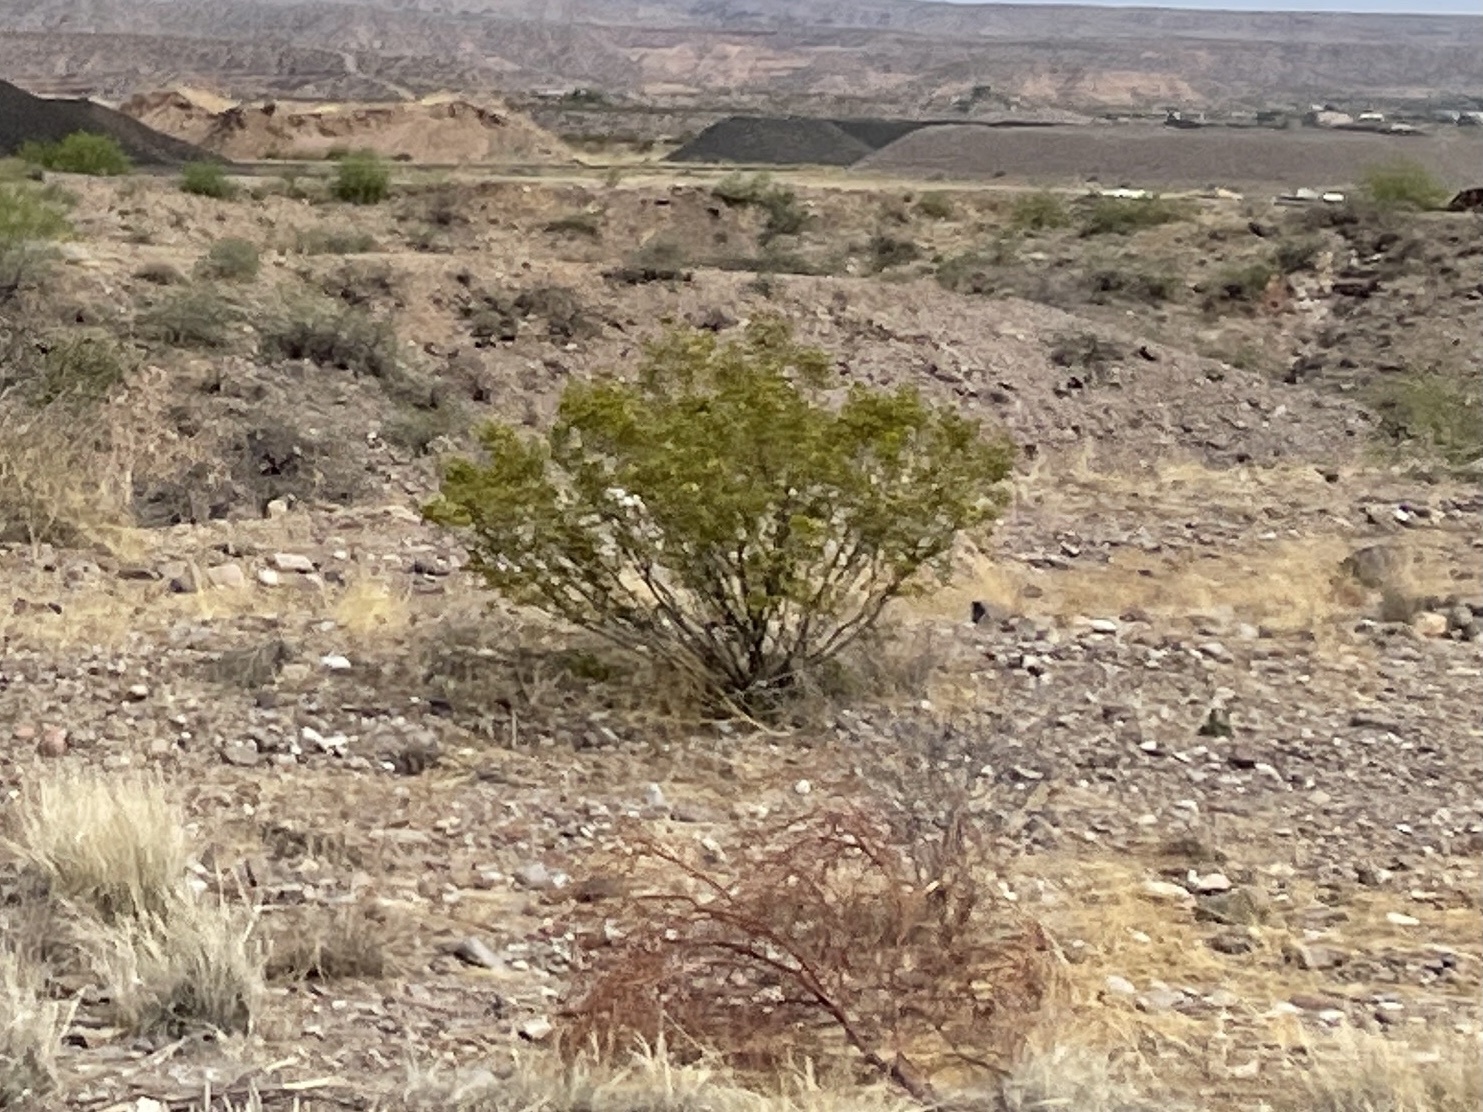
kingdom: Plantae
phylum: Tracheophyta
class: Magnoliopsida
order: Zygophyllales
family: Zygophyllaceae
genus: Larrea
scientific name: Larrea tridentata
